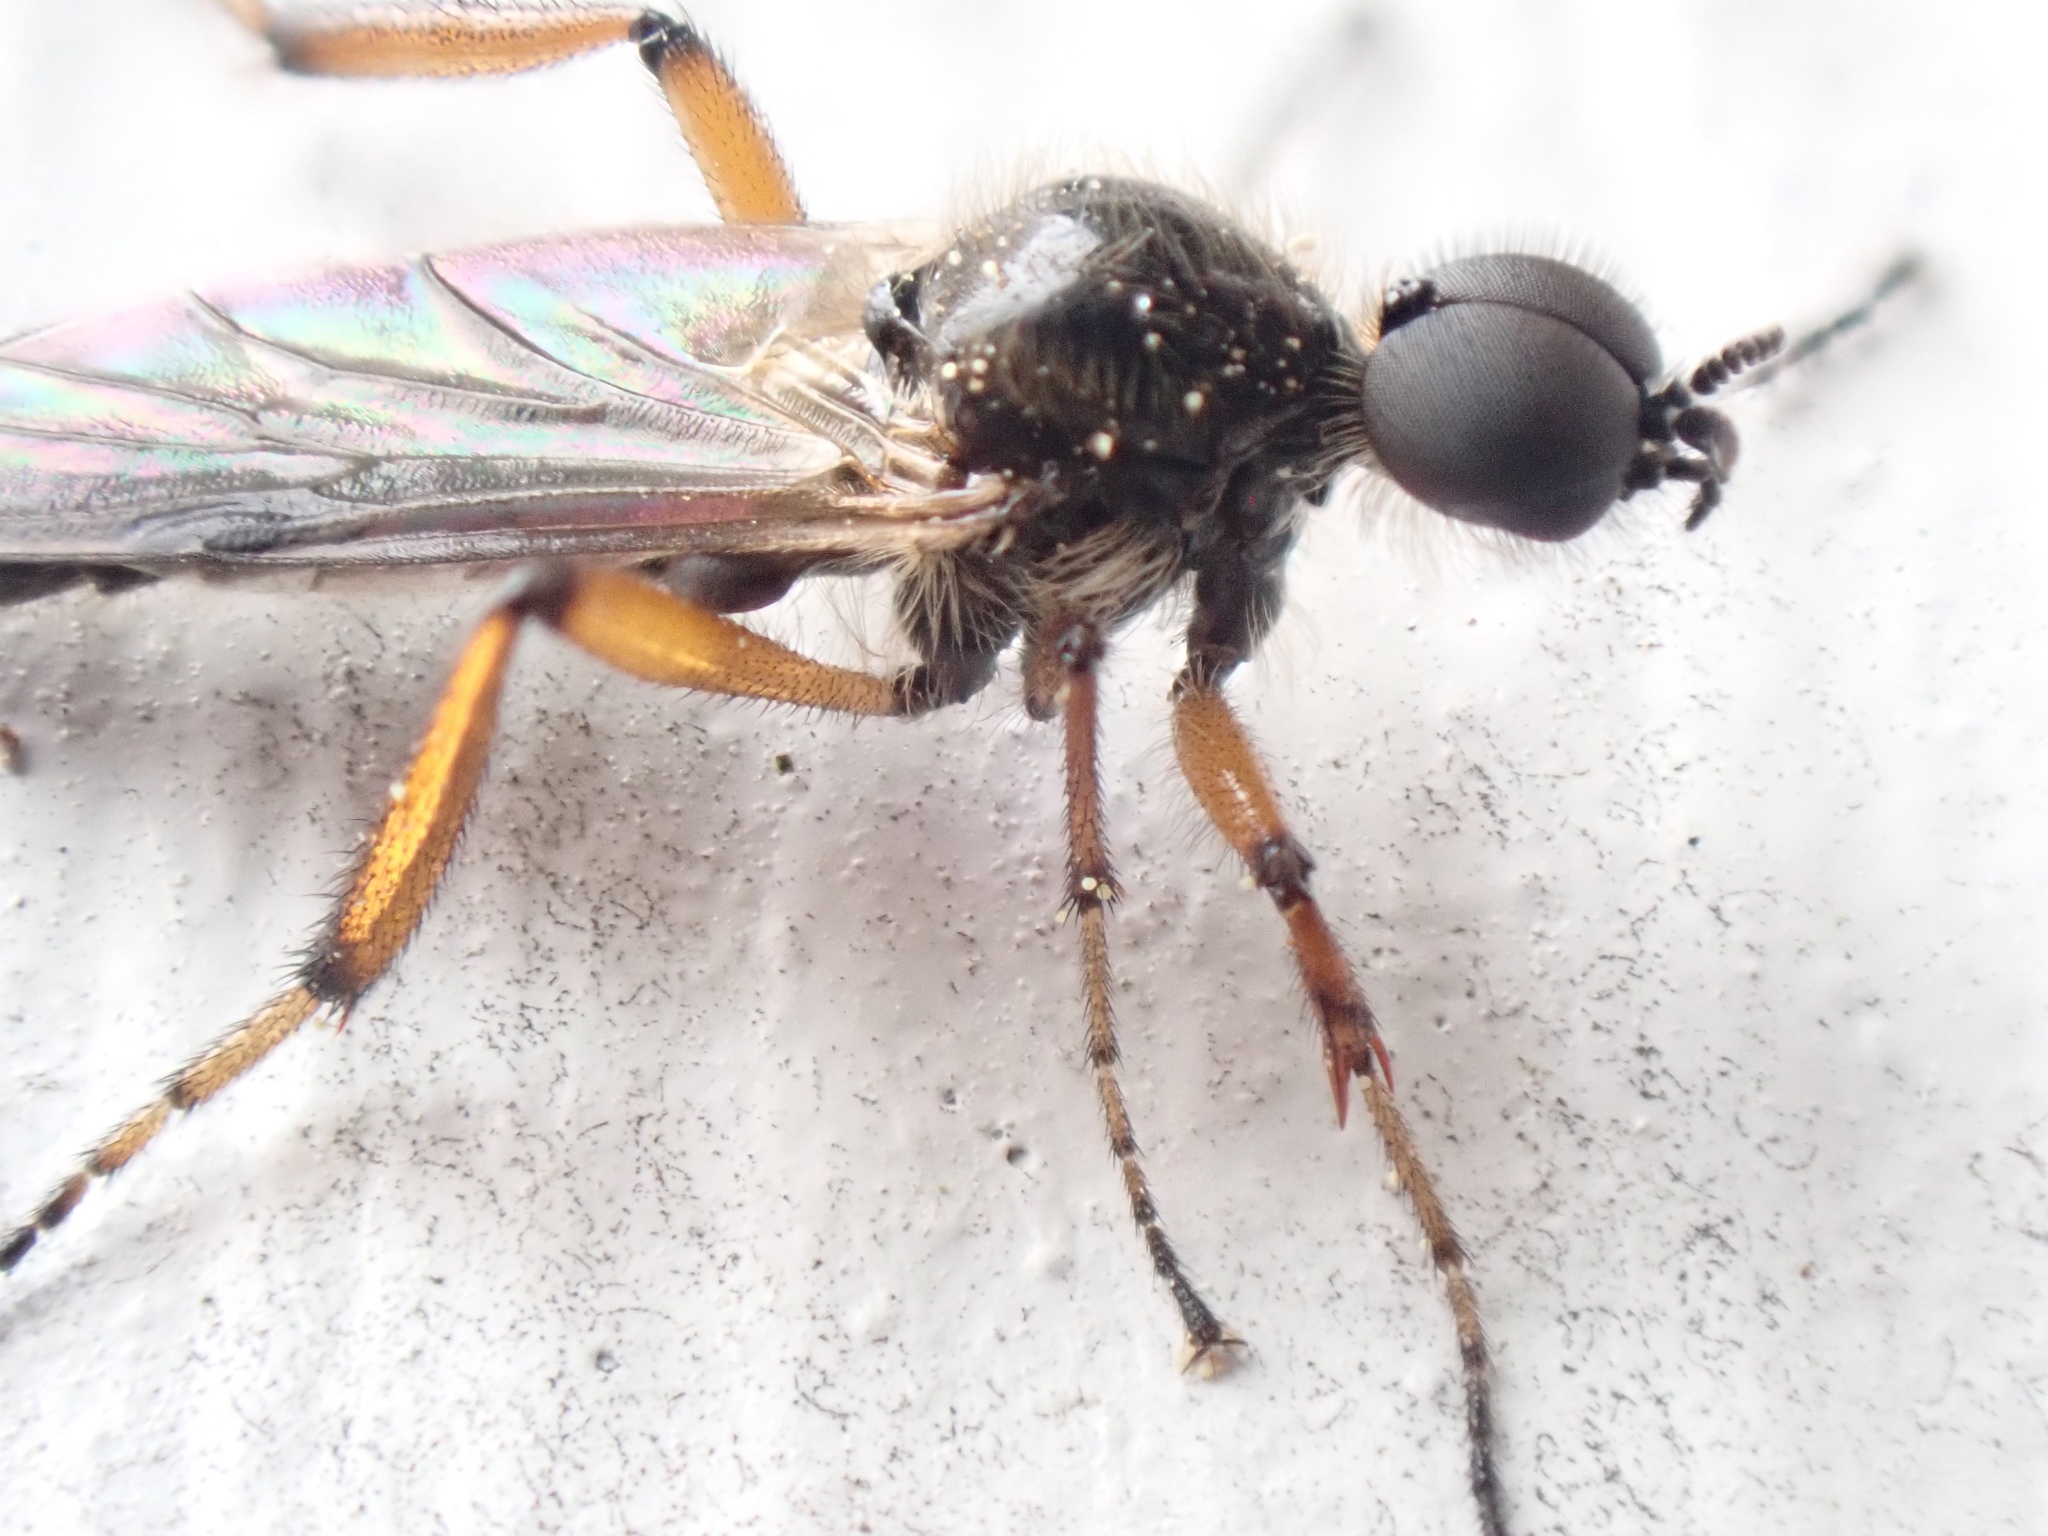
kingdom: Animalia
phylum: Arthropoda
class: Insecta
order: Diptera
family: Bibionidae
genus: Bibio
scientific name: Bibio articulatus
